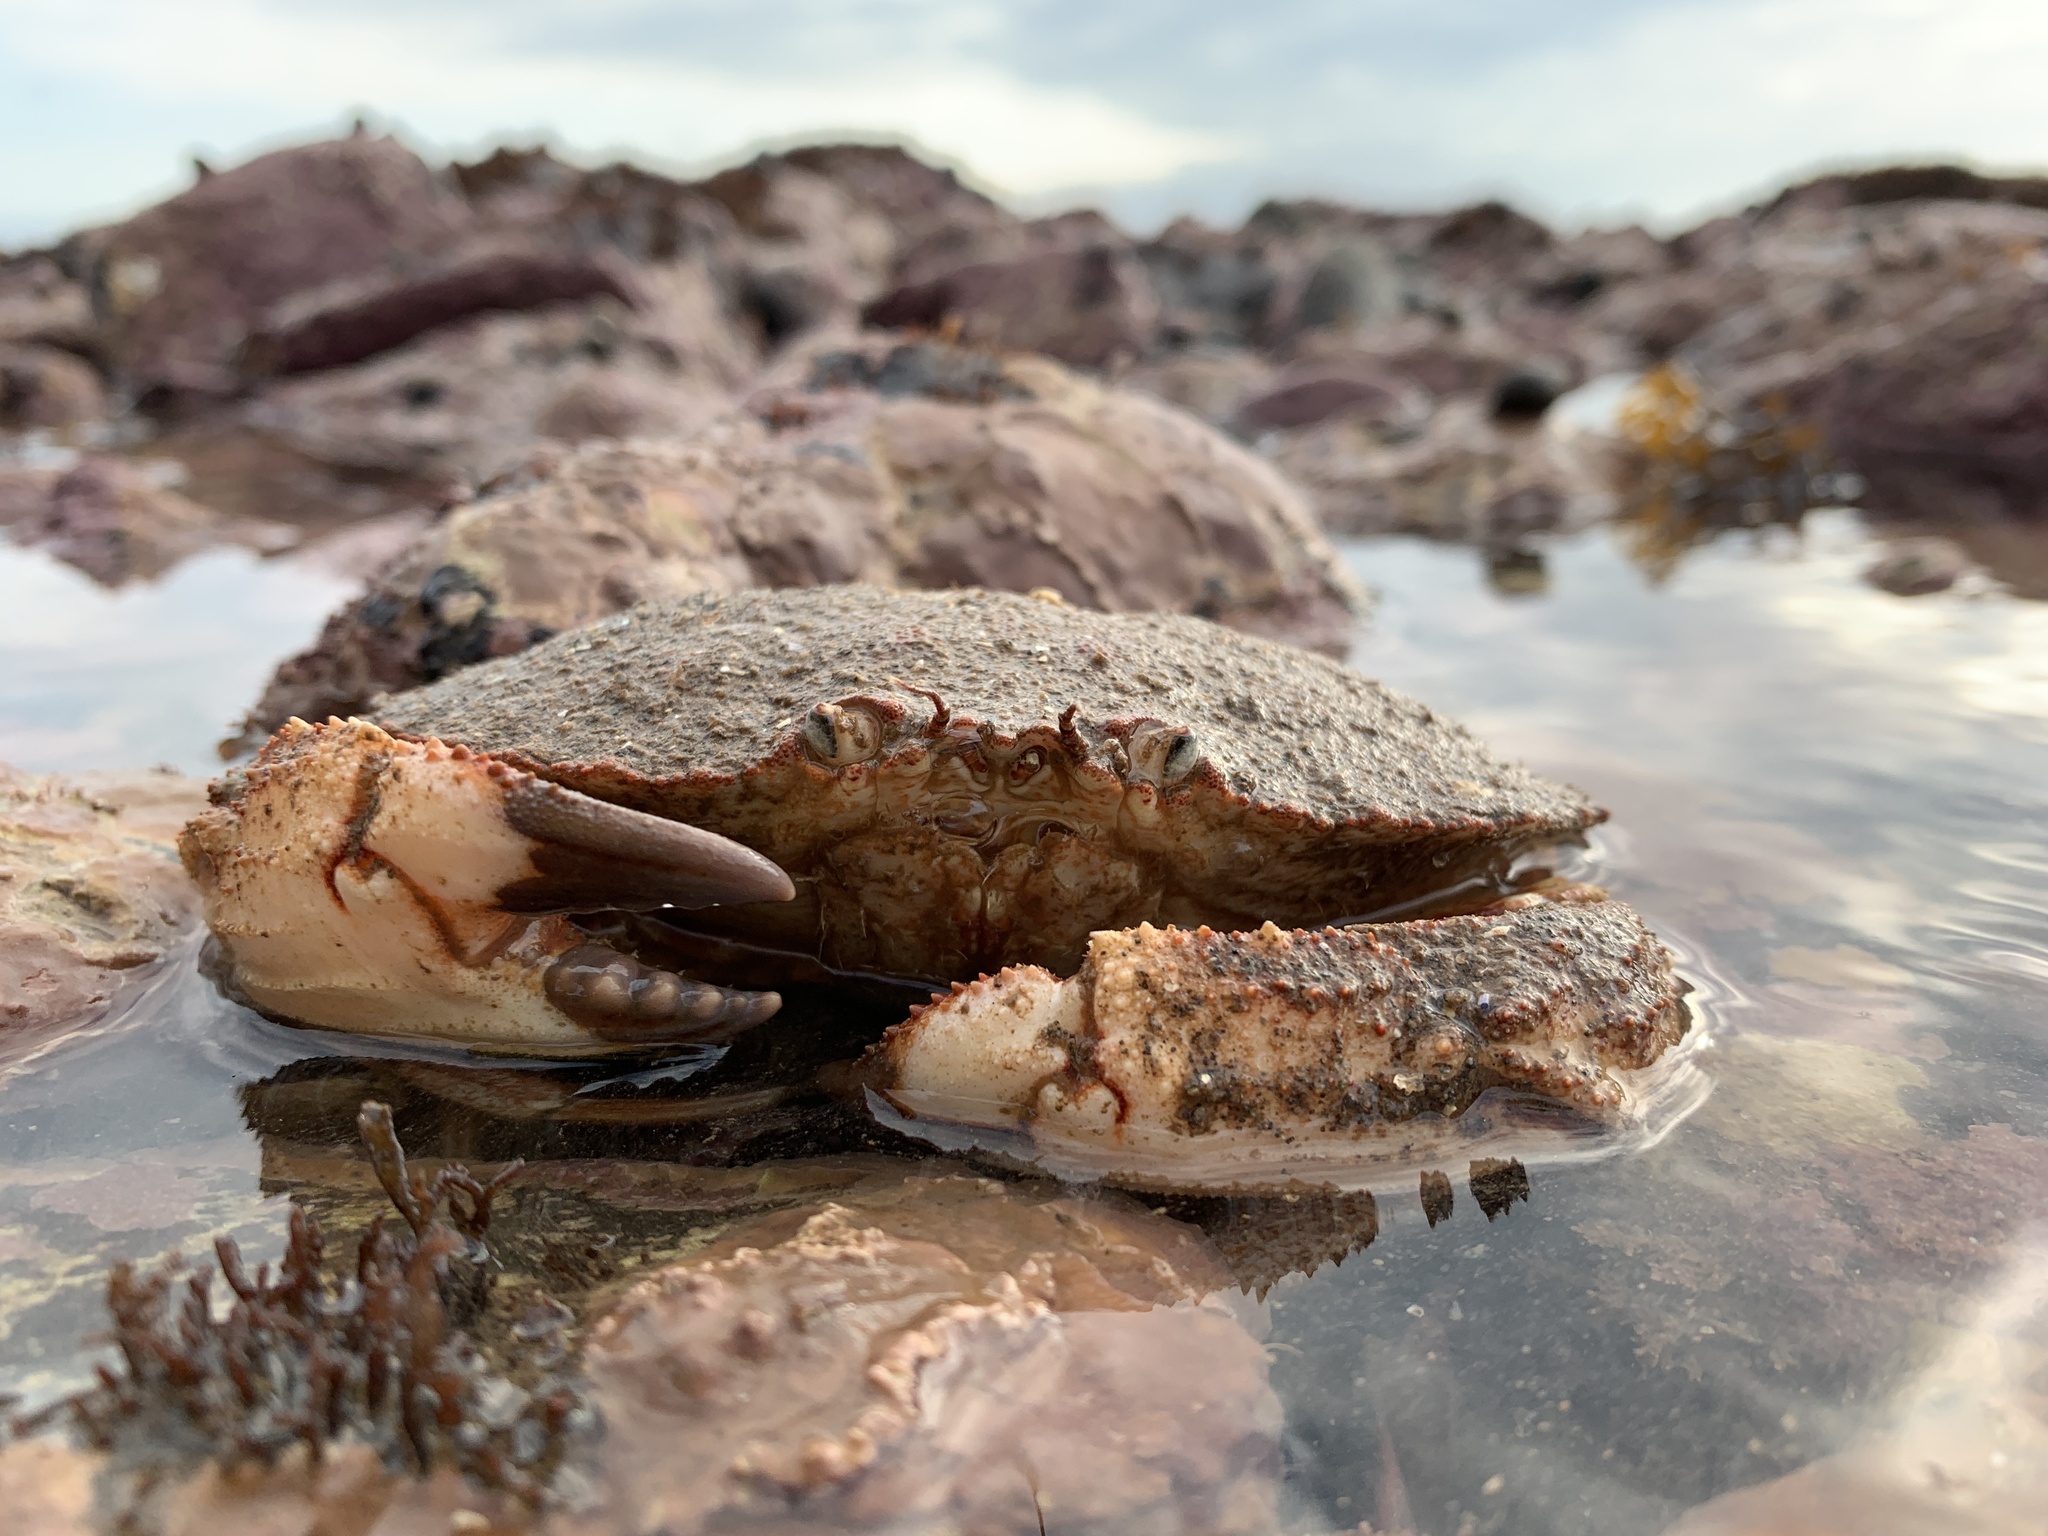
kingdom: Animalia
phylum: Arthropoda
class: Malacostraca
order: Decapoda
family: Cancridae
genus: Cancer
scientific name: Cancer borealis
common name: Jonah crab
